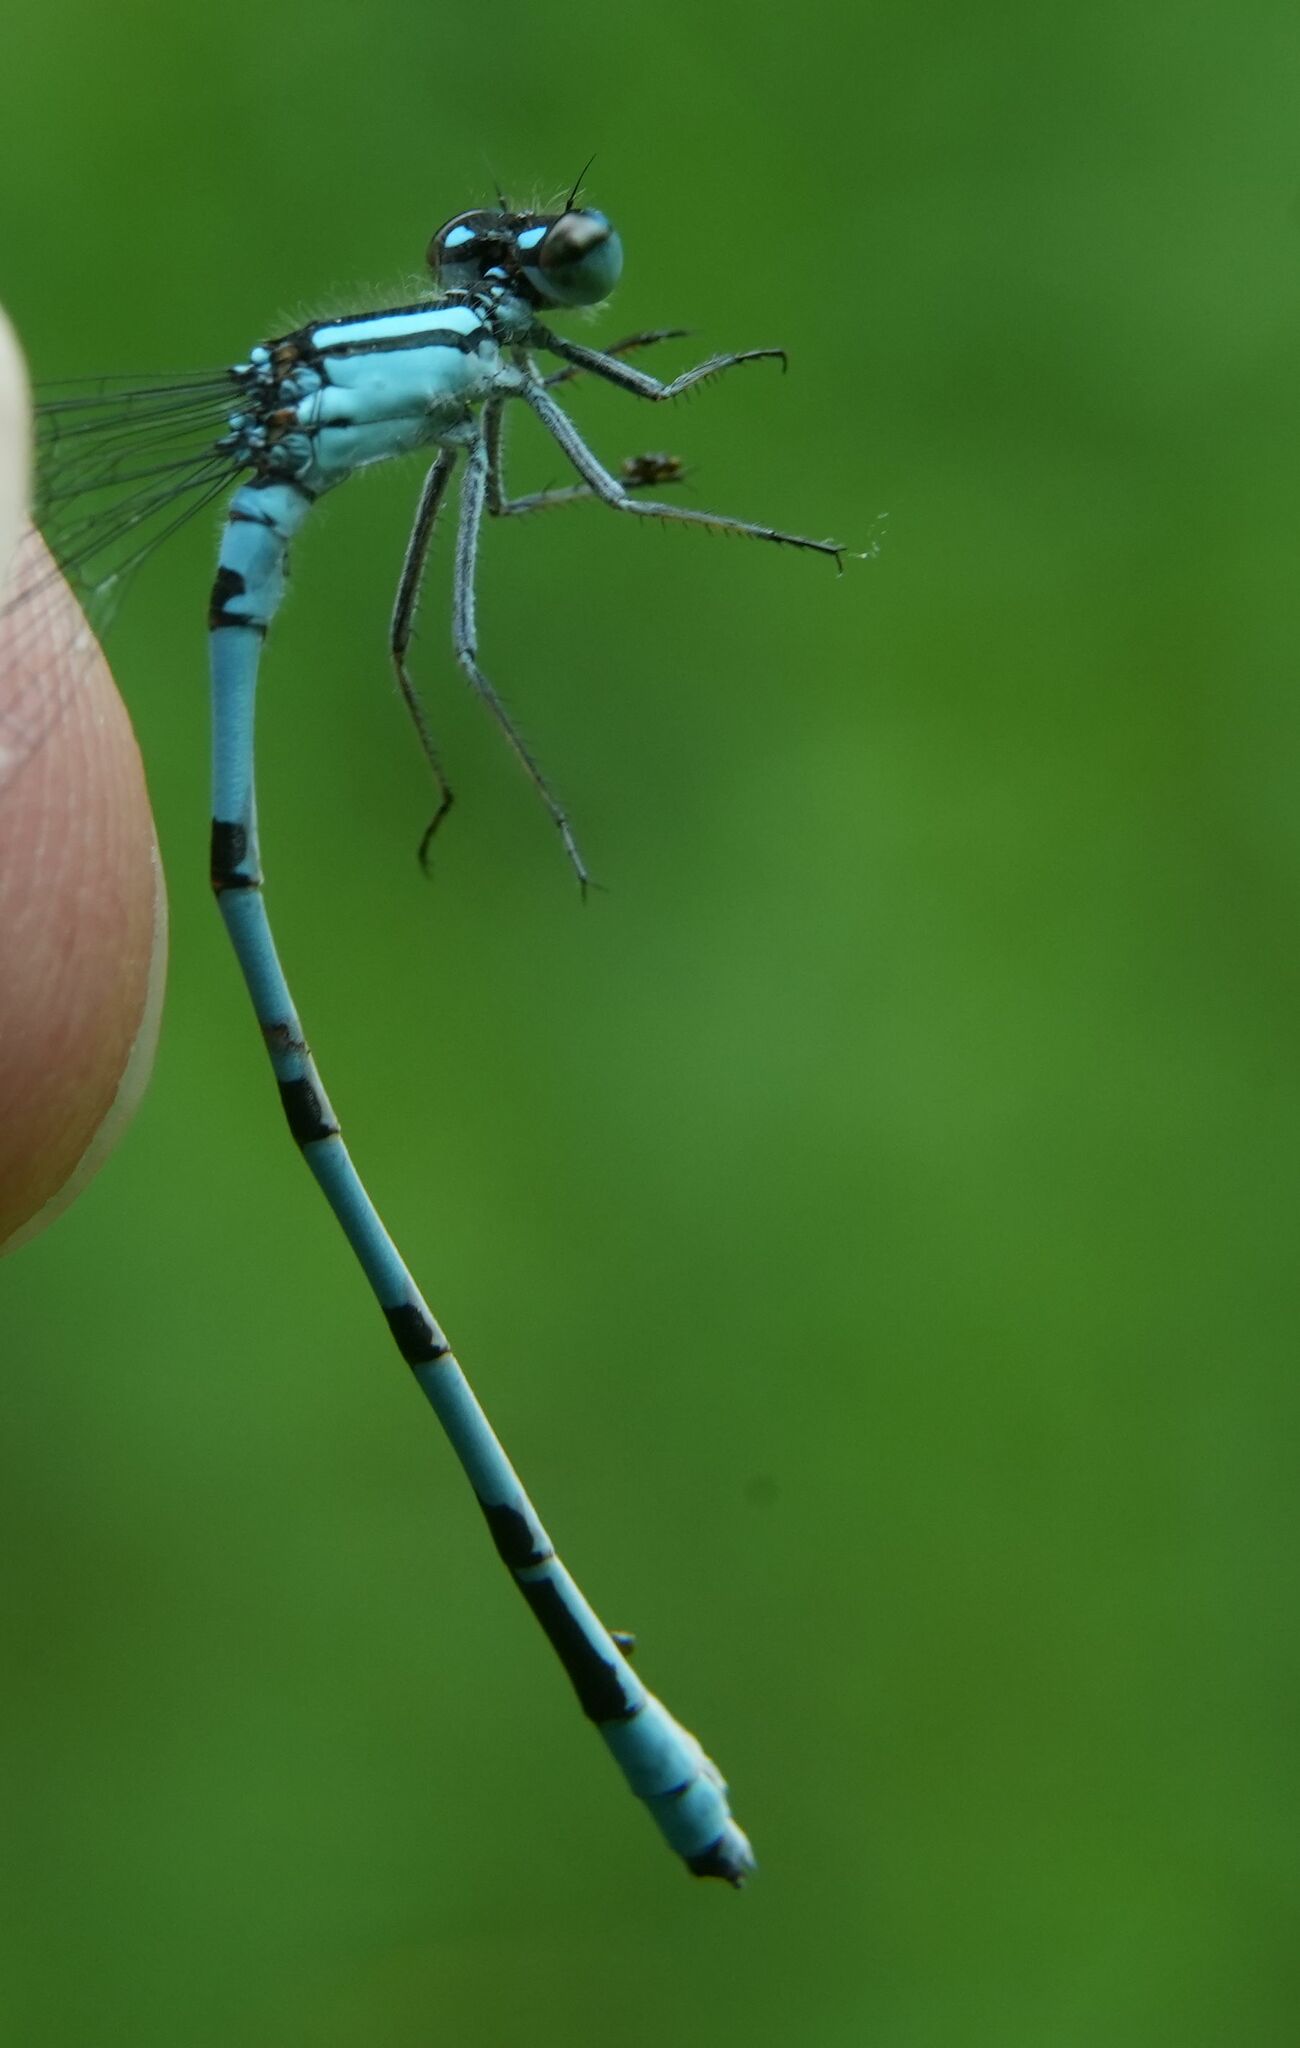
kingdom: Animalia
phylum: Arthropoda
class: Insecta
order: Odonata
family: Coenagrionidae
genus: Enallagma
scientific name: Enallagma ebrium
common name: Marsh bluet
